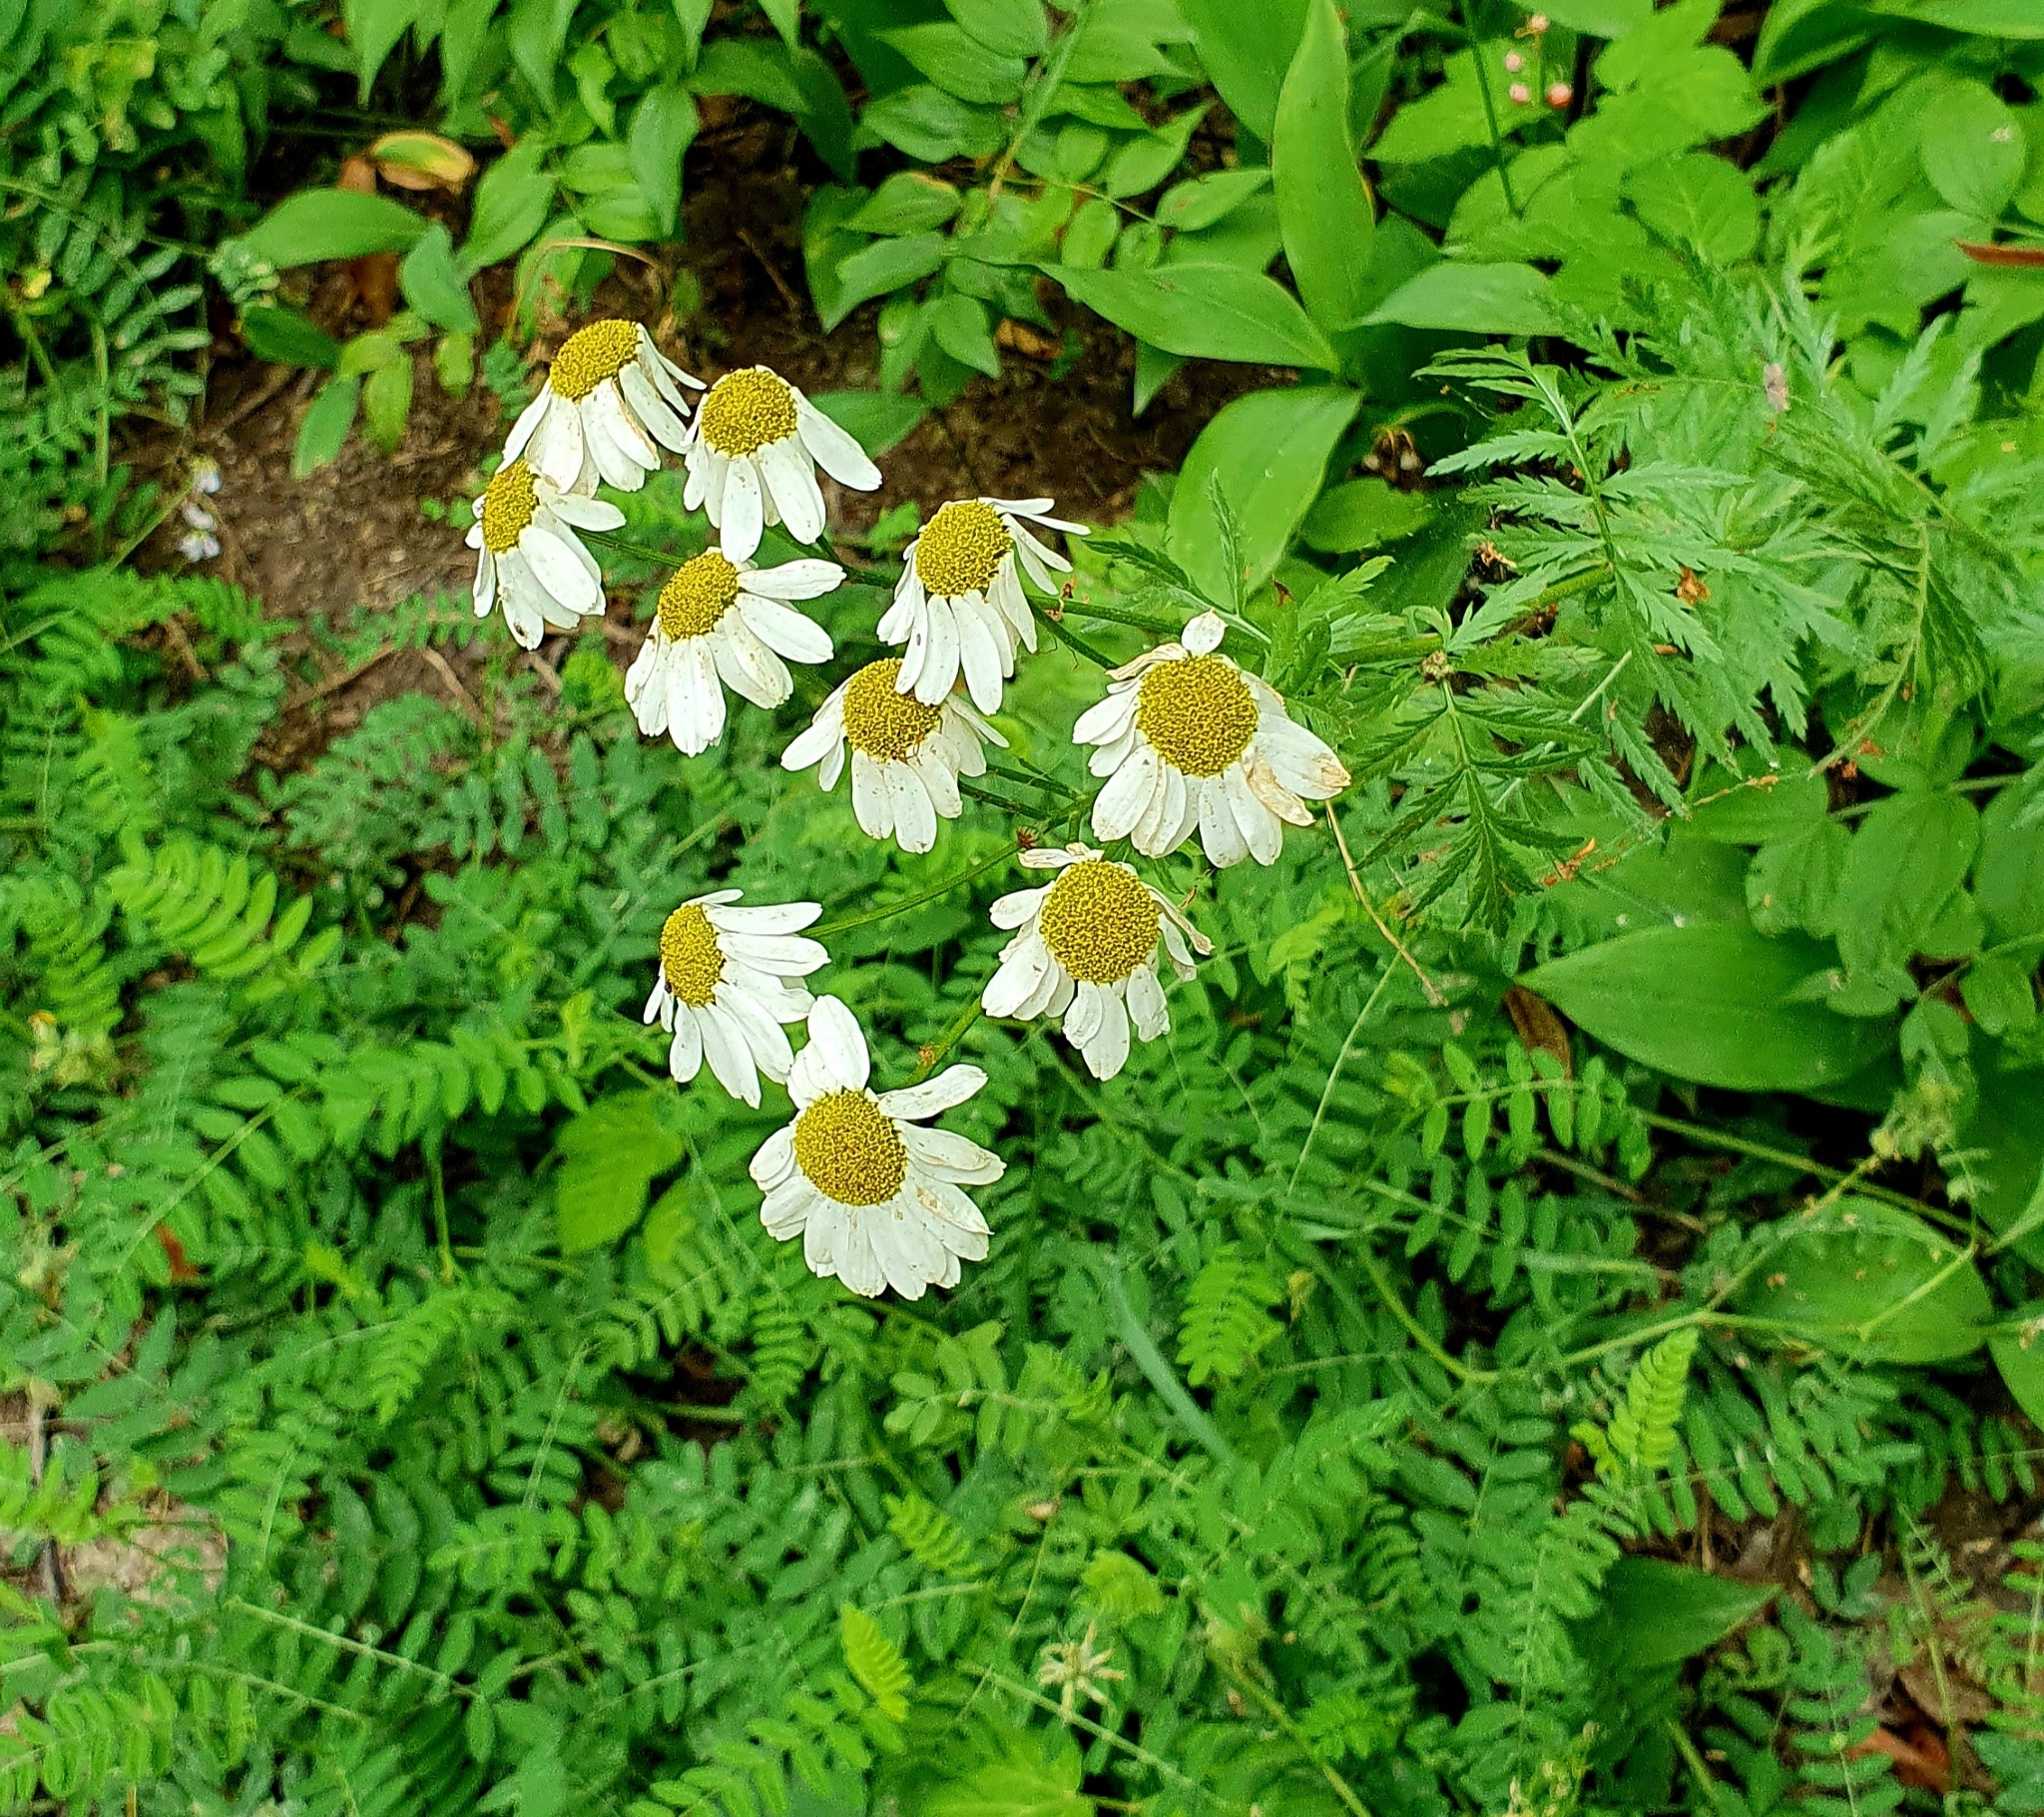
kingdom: Plantae
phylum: Tracheophyta
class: Magnoliopsida
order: Asterales
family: Asteraceae
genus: Tanacetum
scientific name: Tanacetum corymbosum
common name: Scentless feverfew
